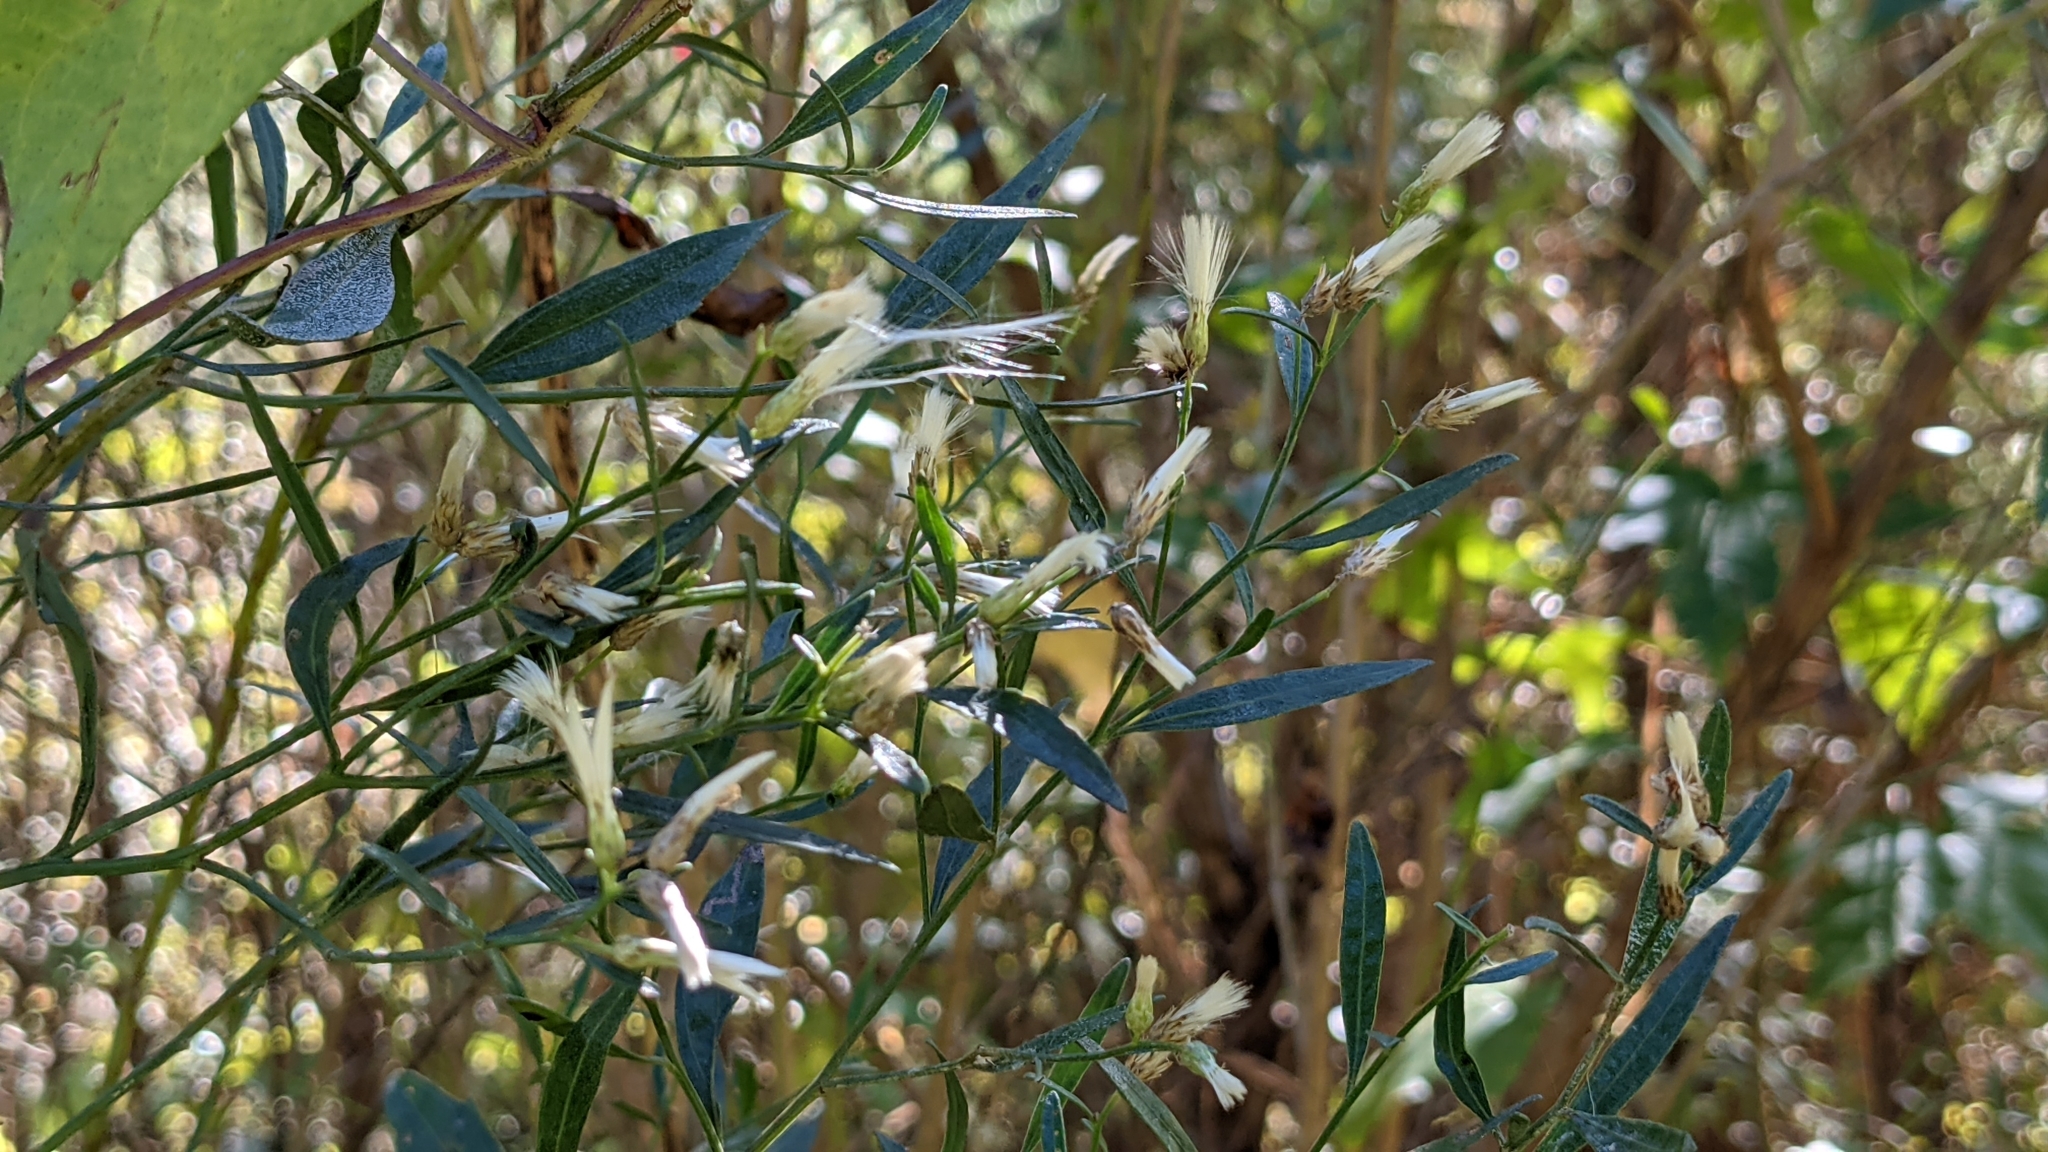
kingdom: Plantae
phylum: Tracheophyta
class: Magnoliopsida
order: Asterales
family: Asteraceae
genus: Baccharis
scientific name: Baccharis halimifolia
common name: Eastern baccharis
